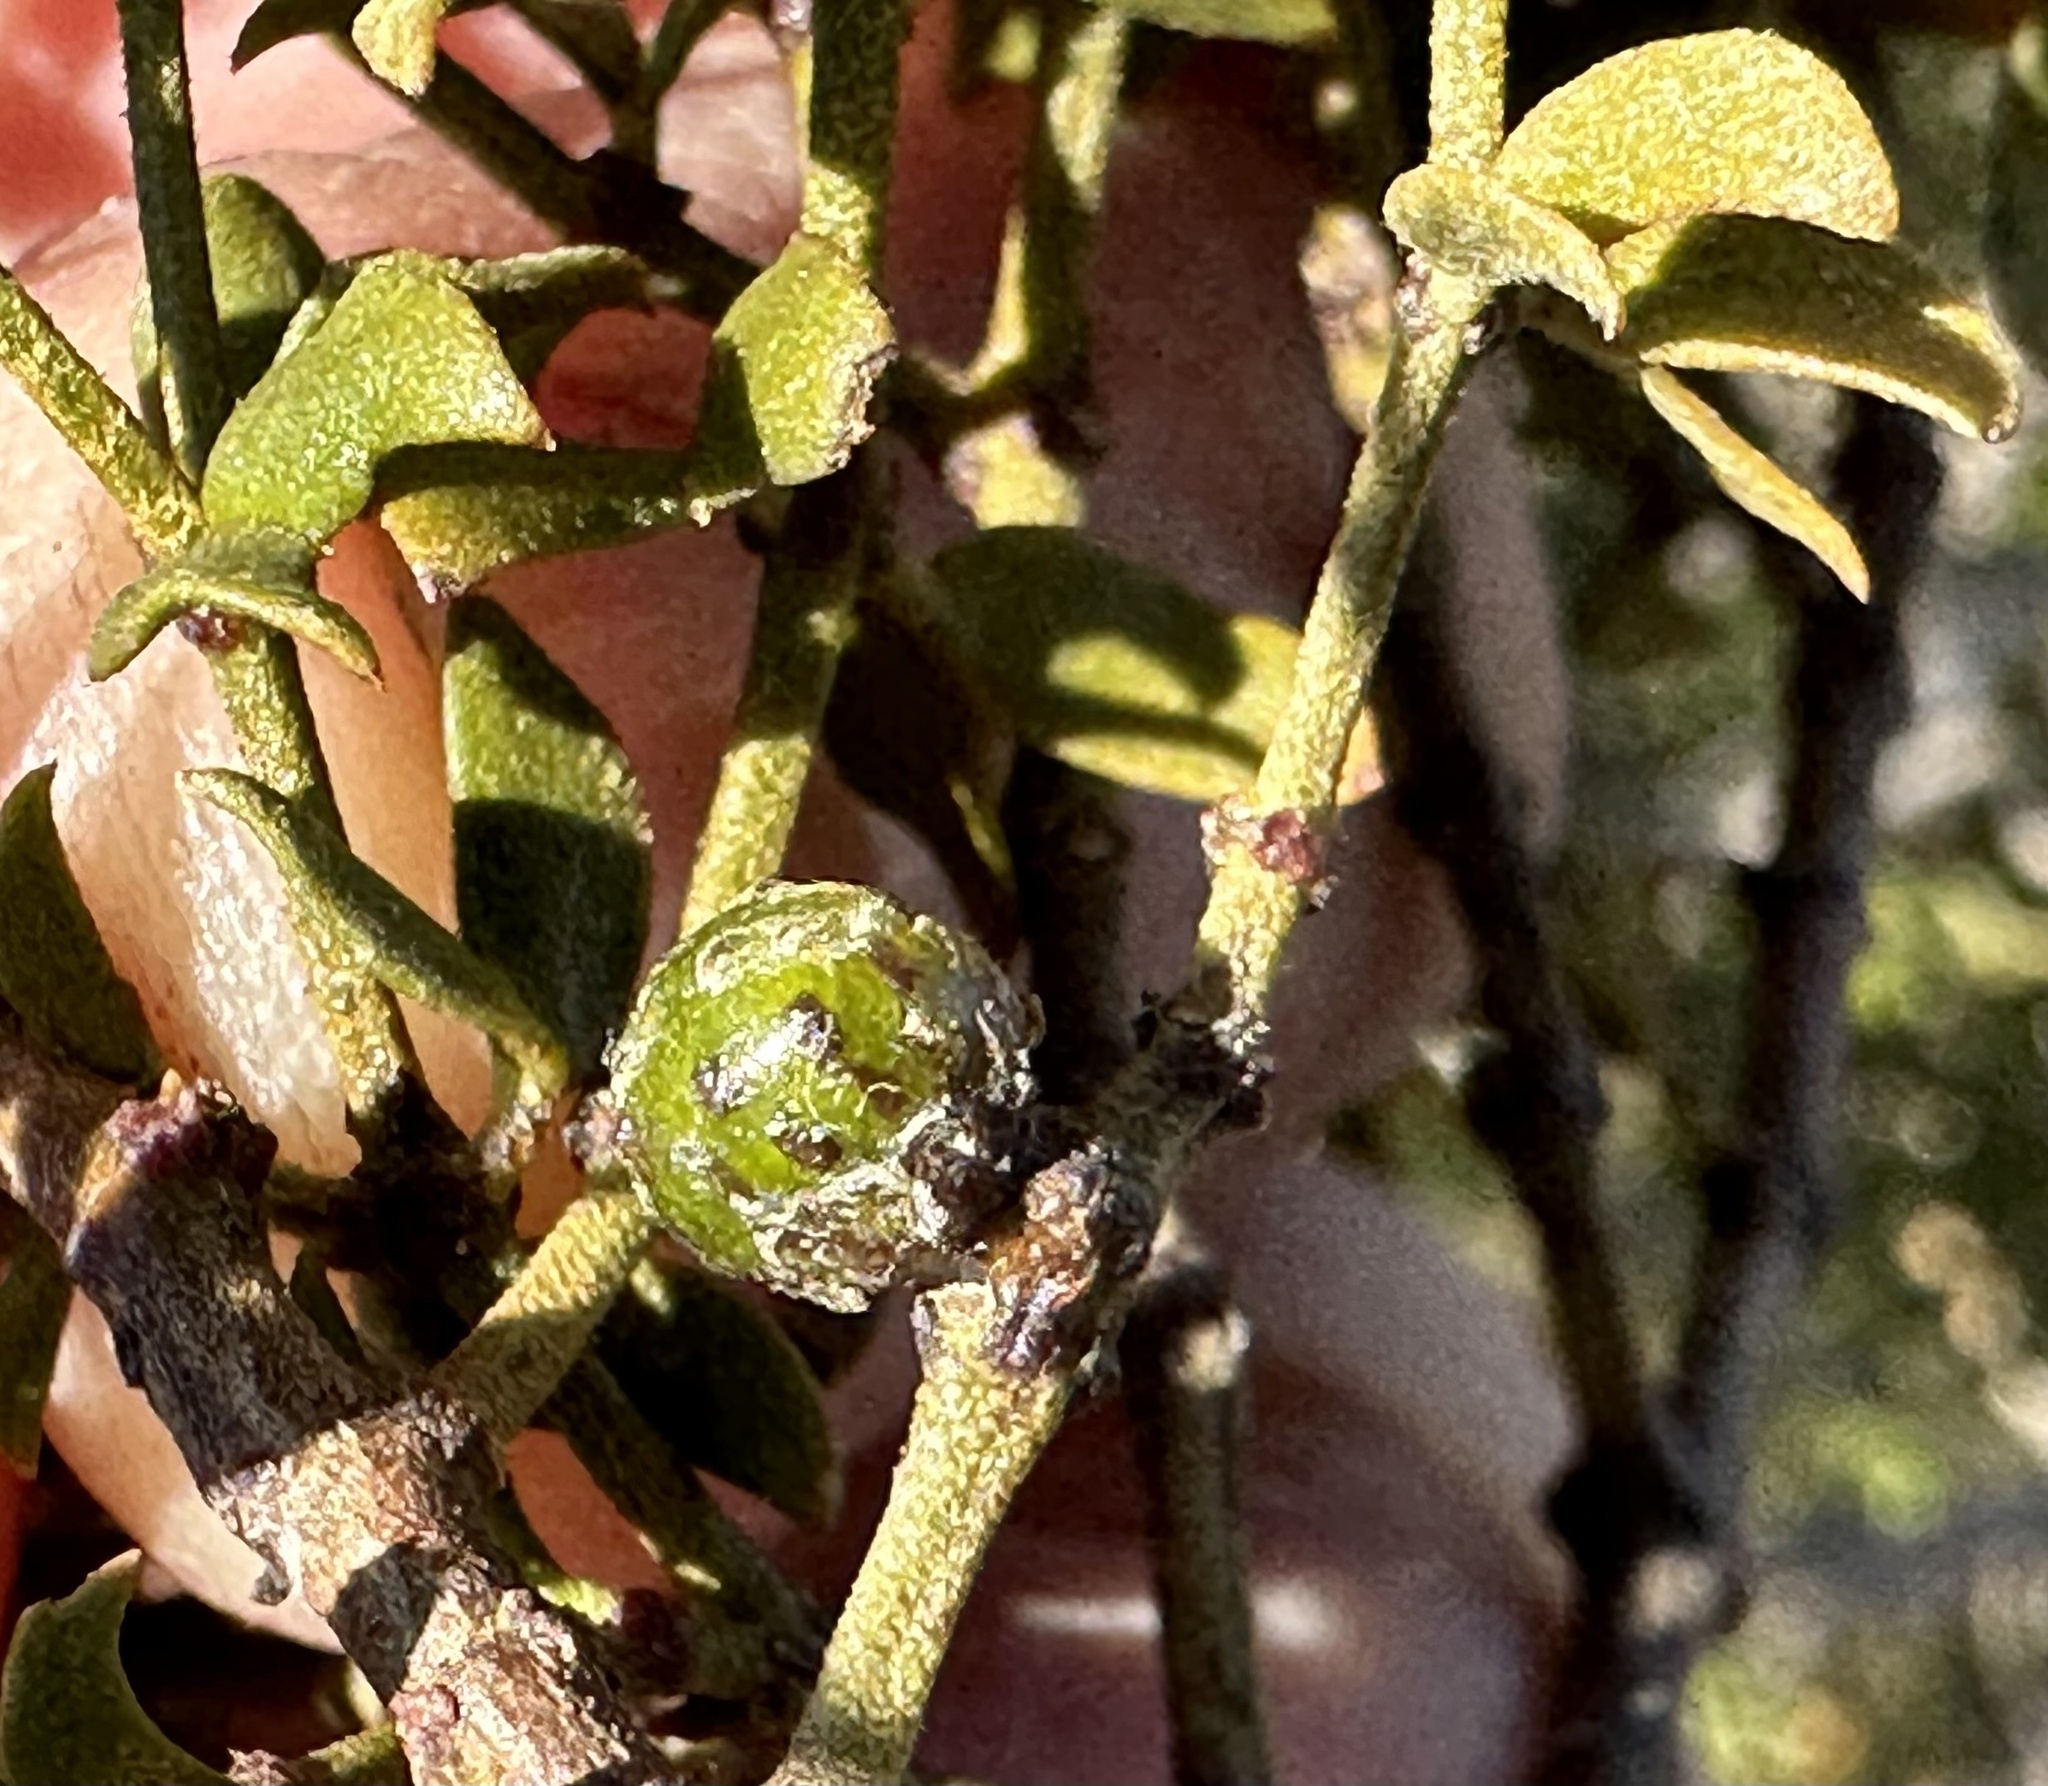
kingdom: Animalia
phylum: Arthropoda
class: Insecta
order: Diptera
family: Cecidomyiidae
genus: Asphondylia
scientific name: Asphondylia resinosa
